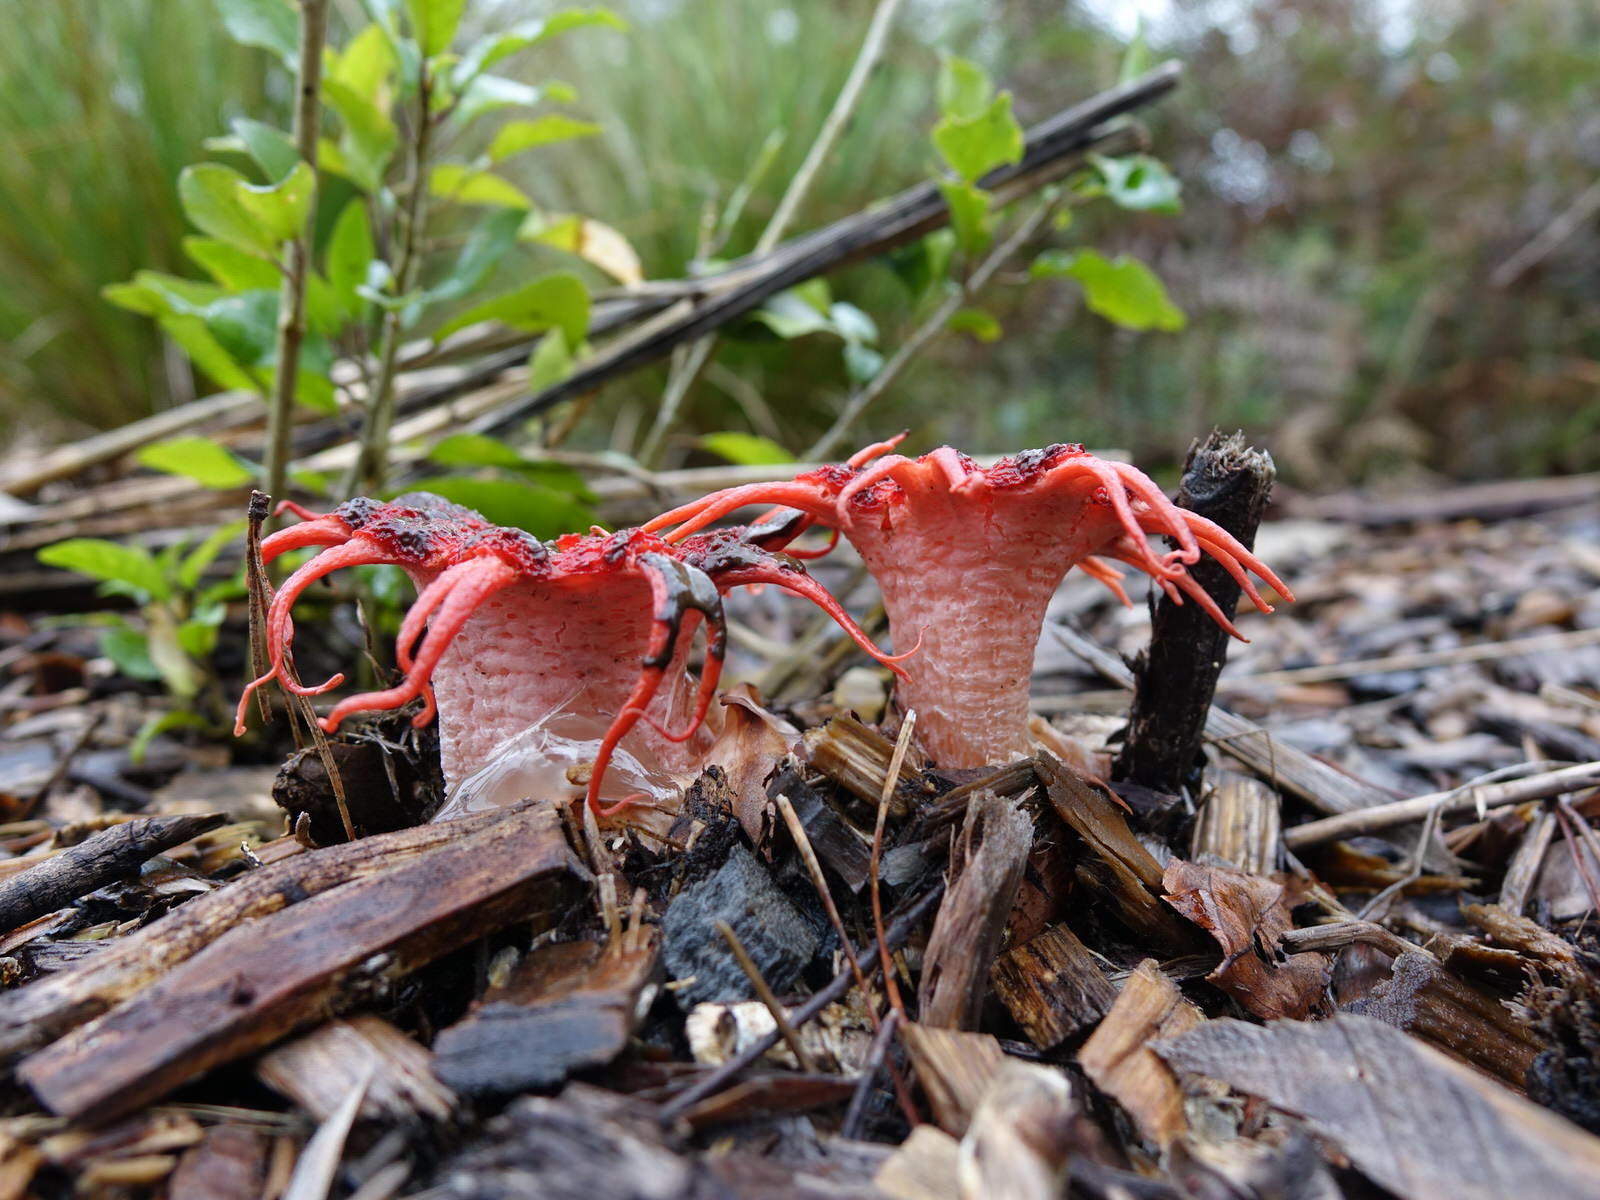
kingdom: Fungi
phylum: Basidiomycota
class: Agaricomycetes
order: Phallales
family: Phallaceae
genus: Aseroe
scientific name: Aseroe rubra
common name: Starfish fungus
